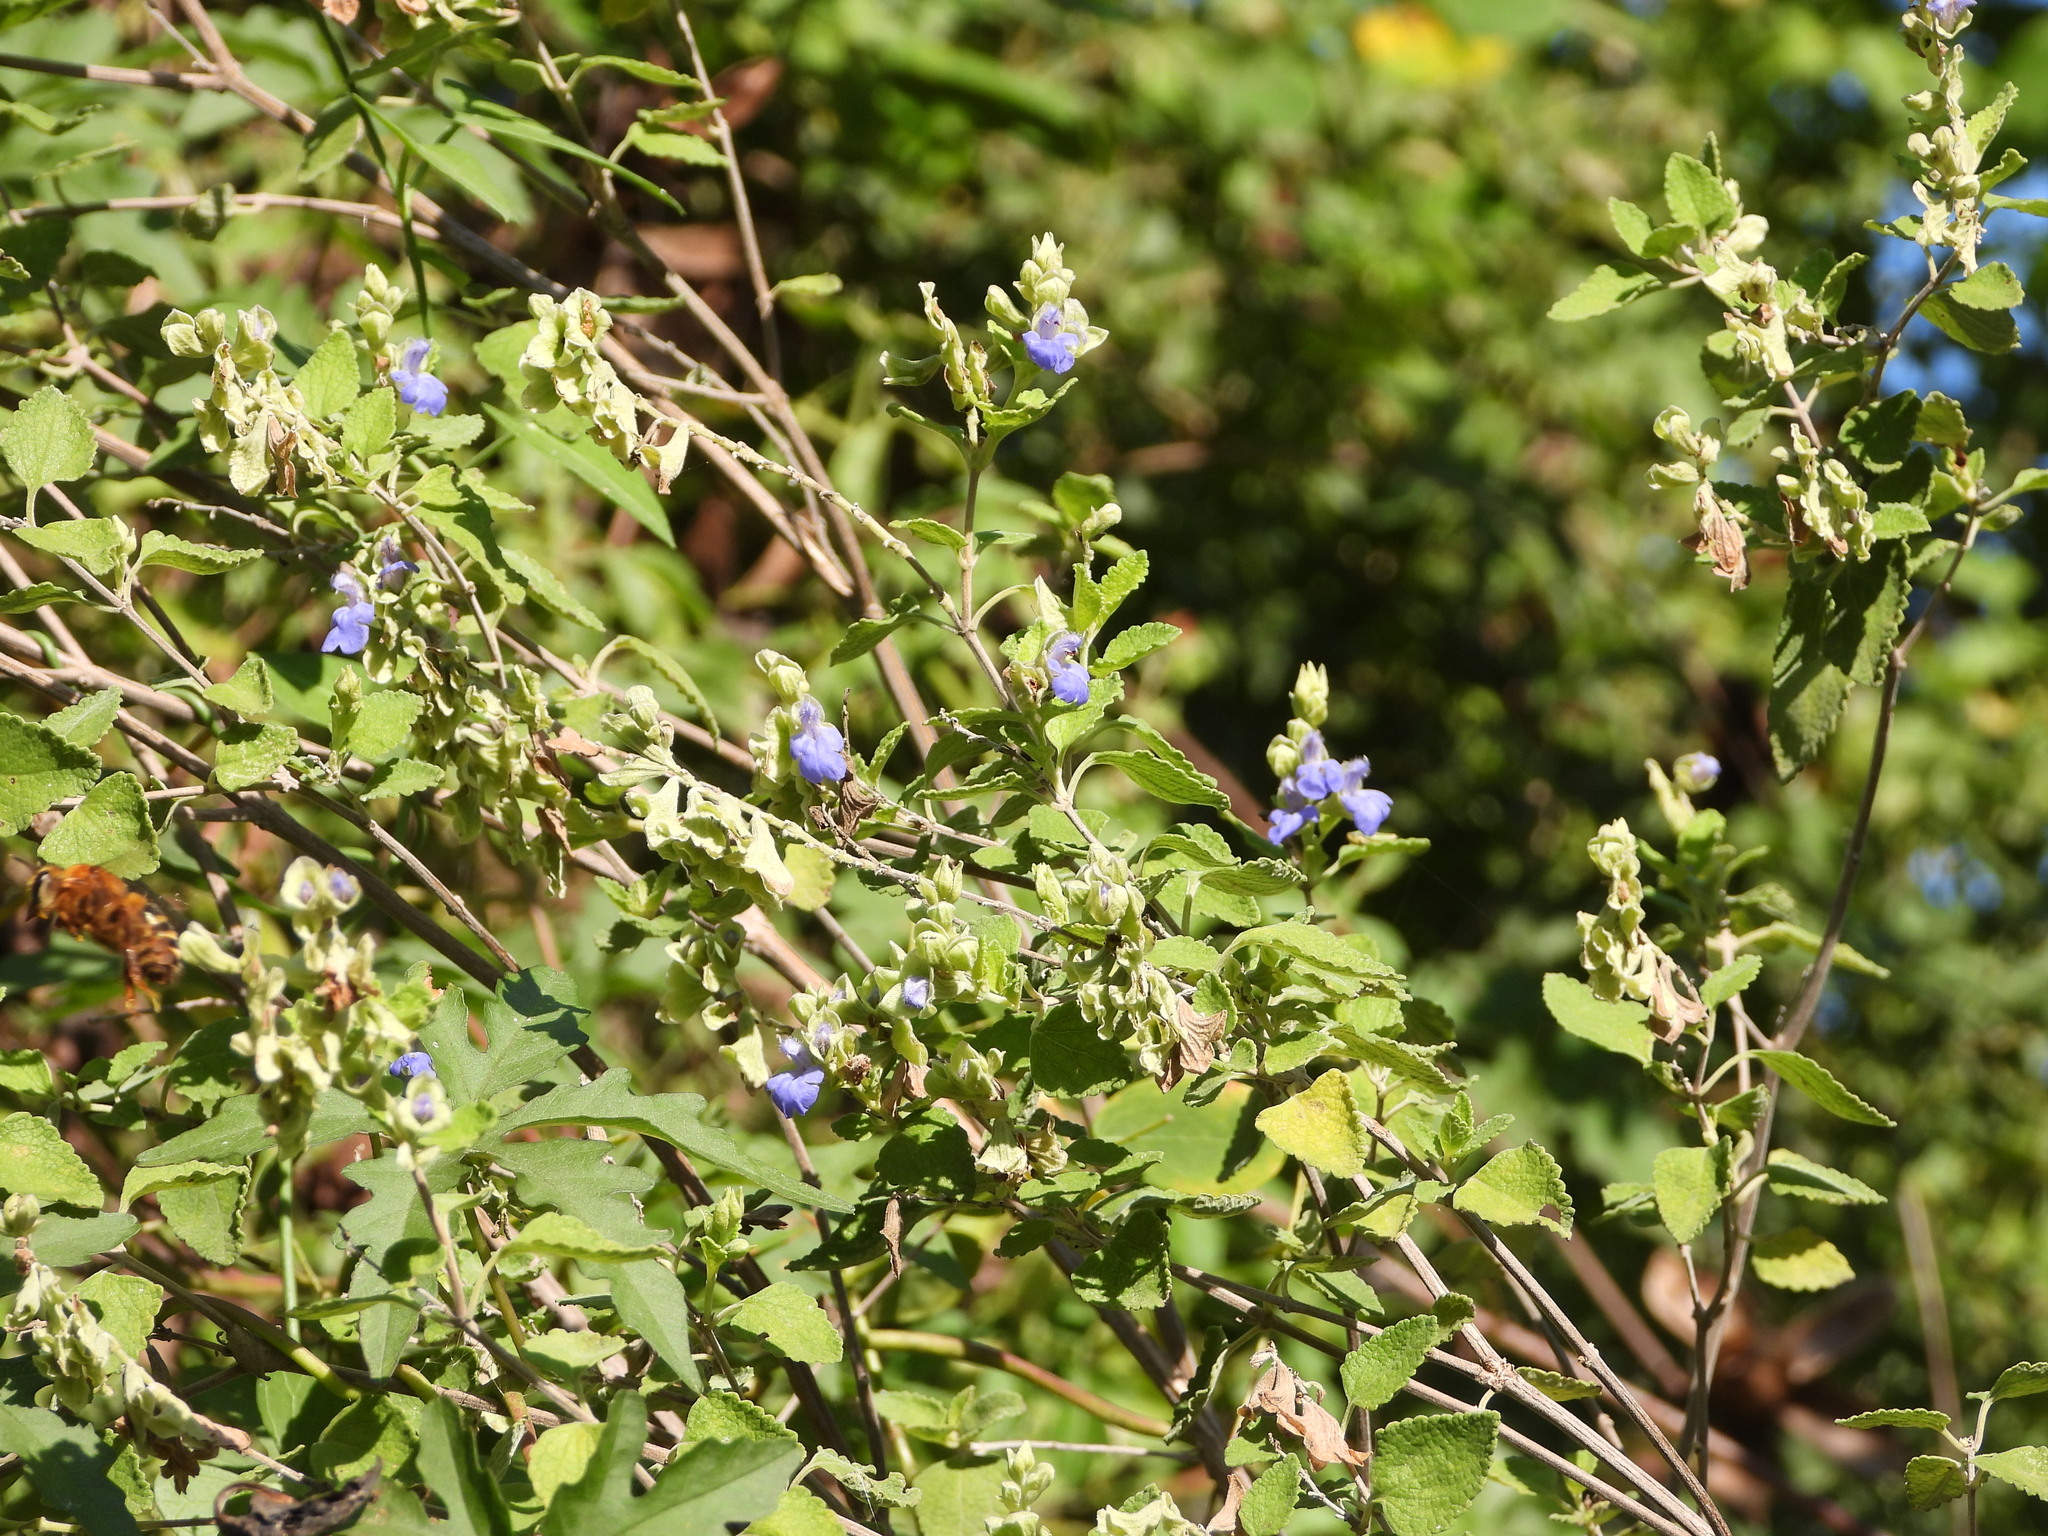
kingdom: Animalia
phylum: Arthropoda
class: Insecta
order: Hymenoptera
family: Colletidae
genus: Ptiloglossa
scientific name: Ptiloglossa mexicana
